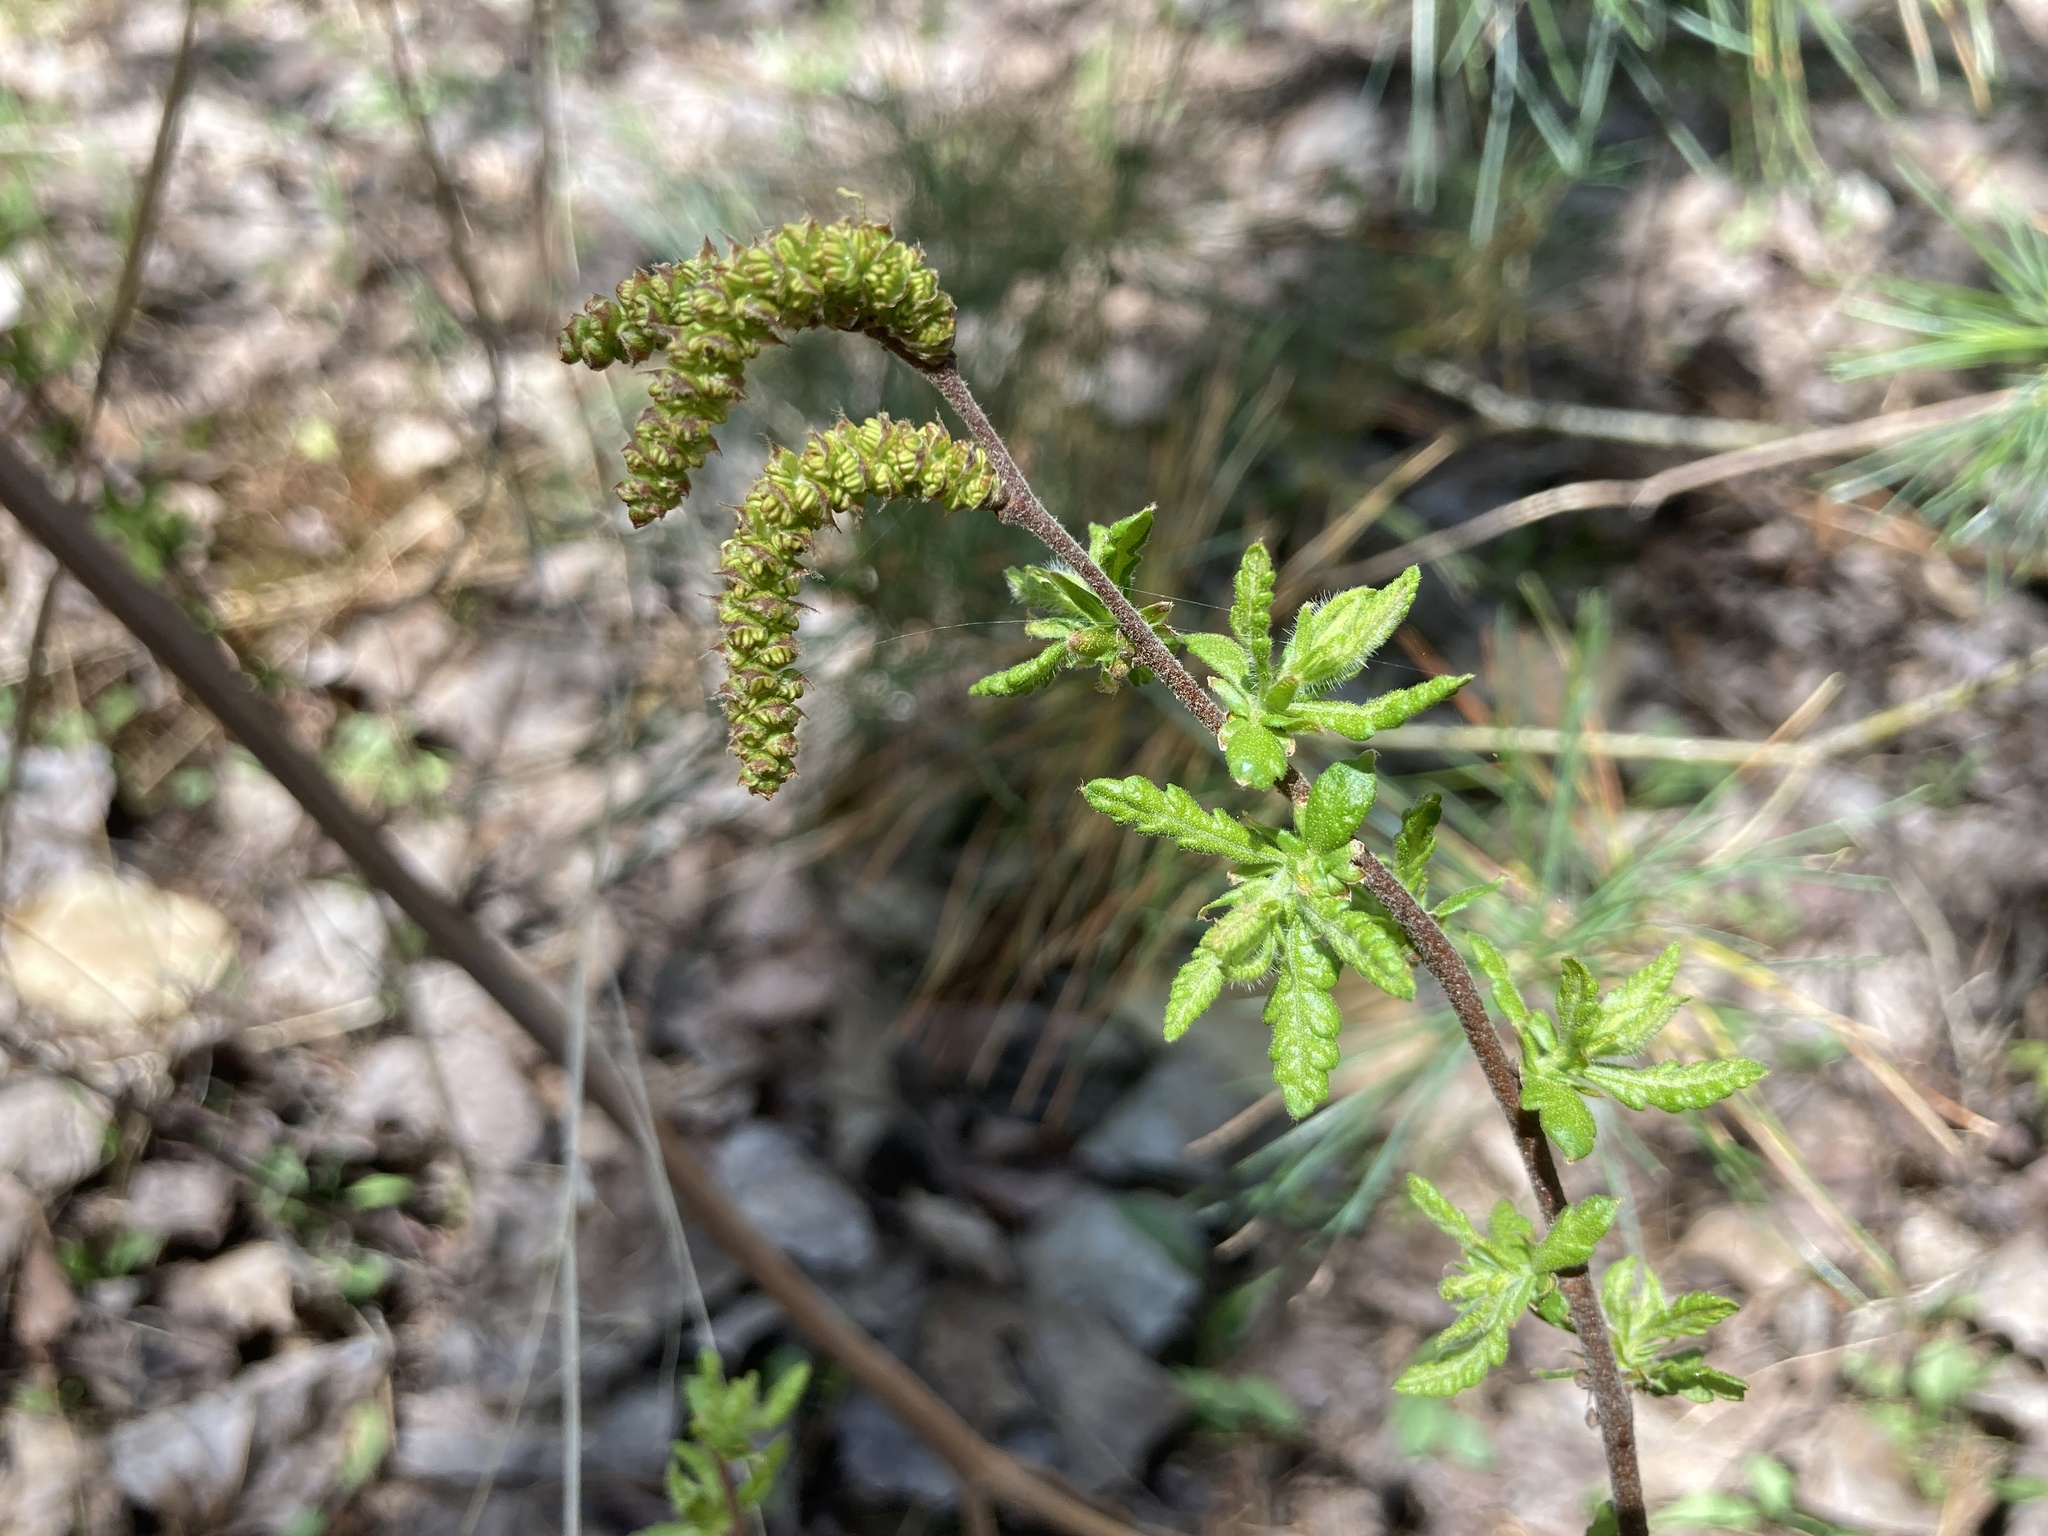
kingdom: Plantae
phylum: Tracheophyta
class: Magnoliopsida
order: Fagales
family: Myricaceae
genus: Comptonia
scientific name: Comptonia peregrina
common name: Sweet-fern
